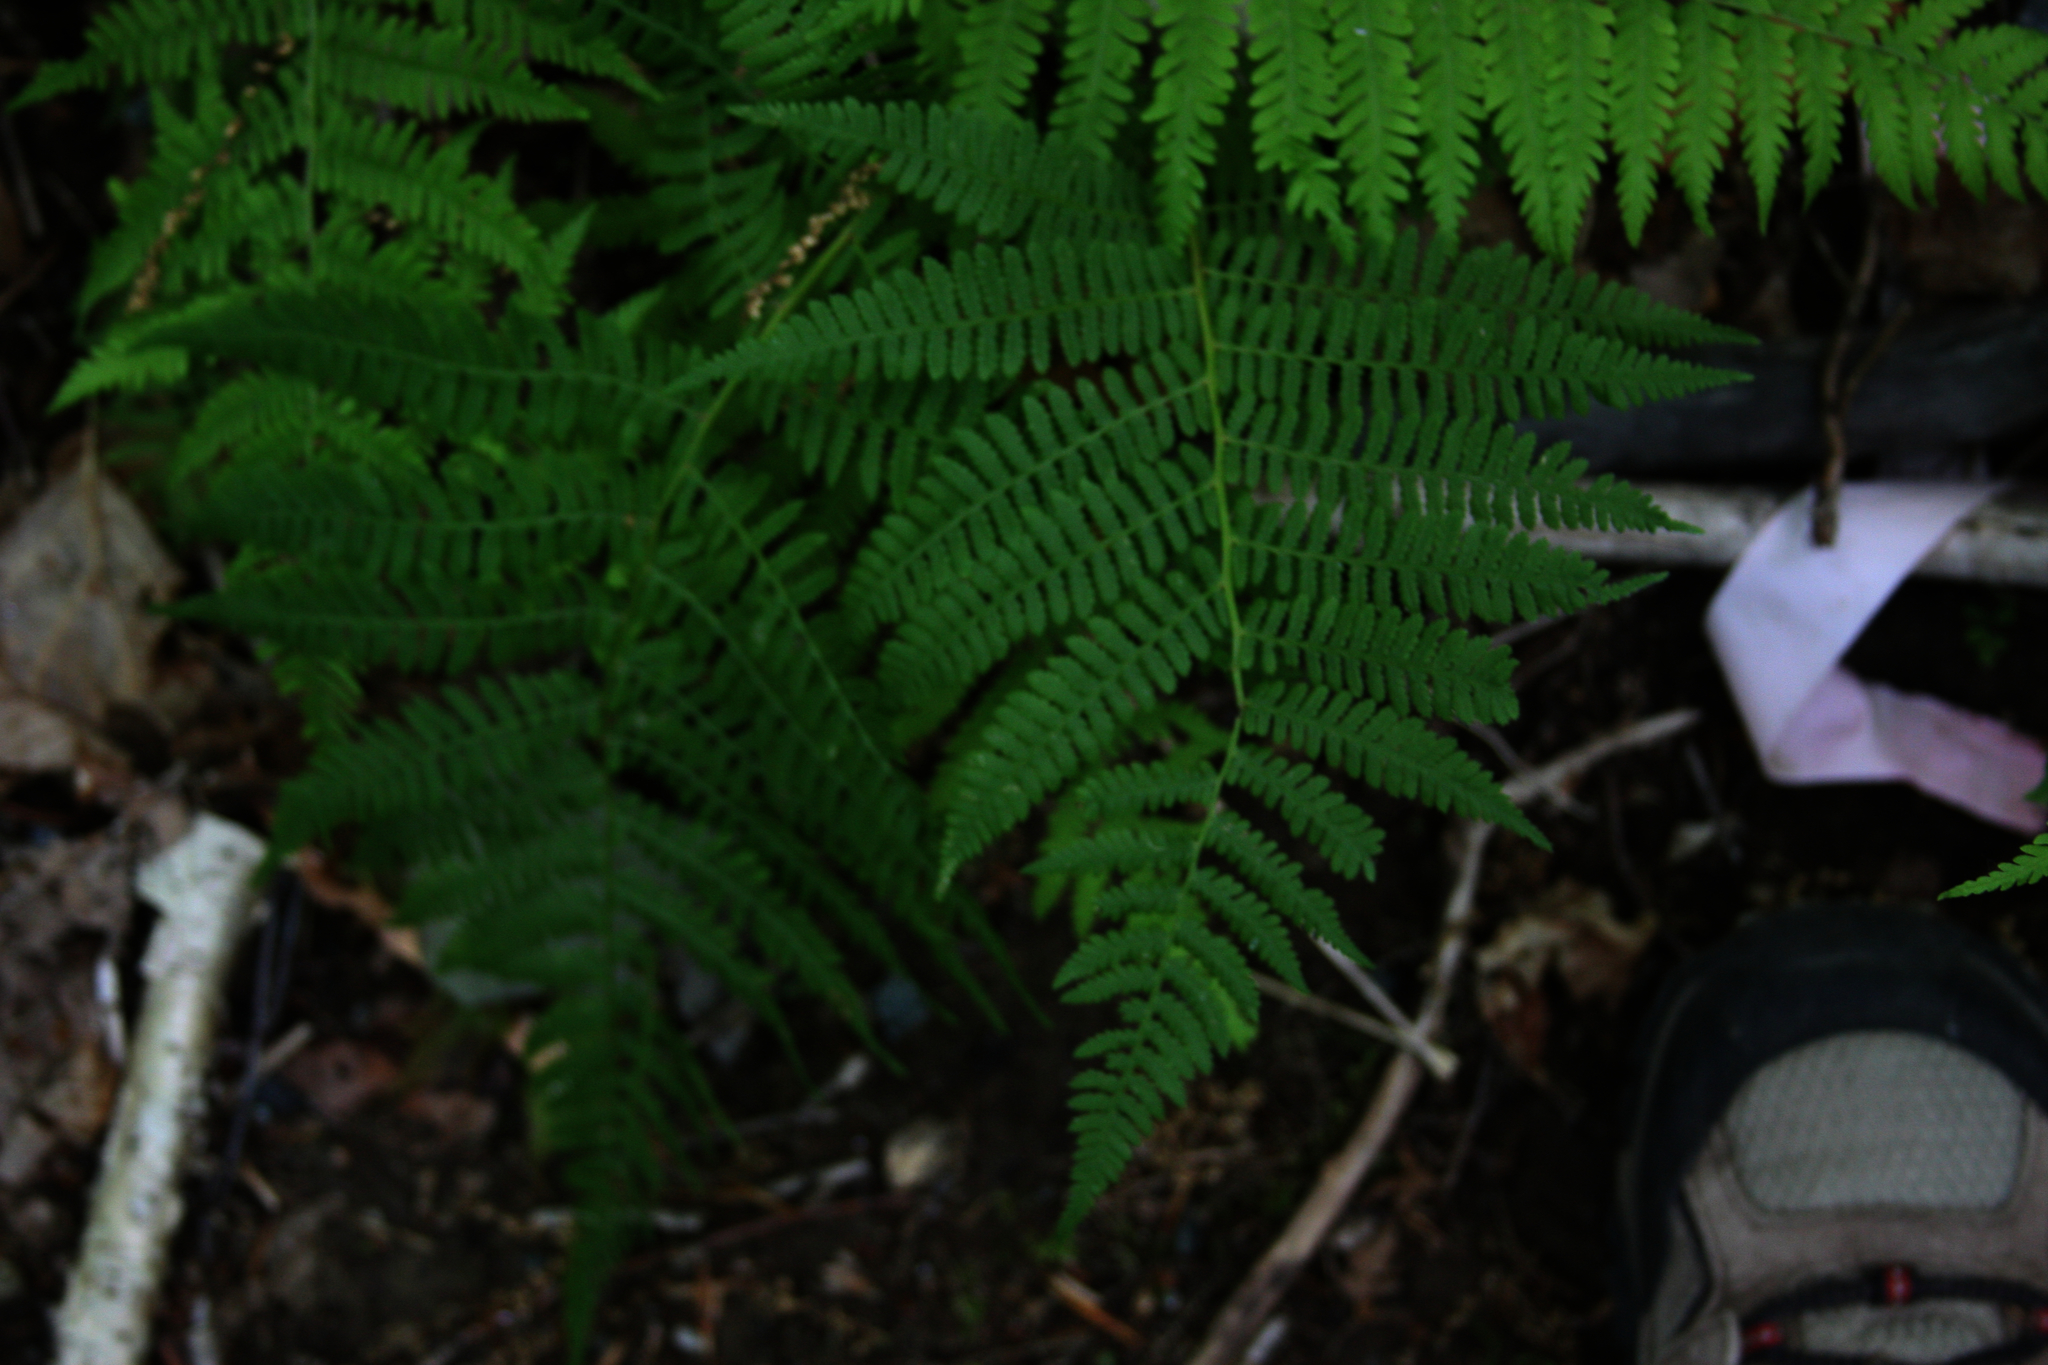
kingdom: Plantae
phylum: Tracheophyta
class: Polypodiopsida
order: Polypodiales
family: Athyriaceae
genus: Athyrium
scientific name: Athyrium angustum
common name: Northern lady fern
